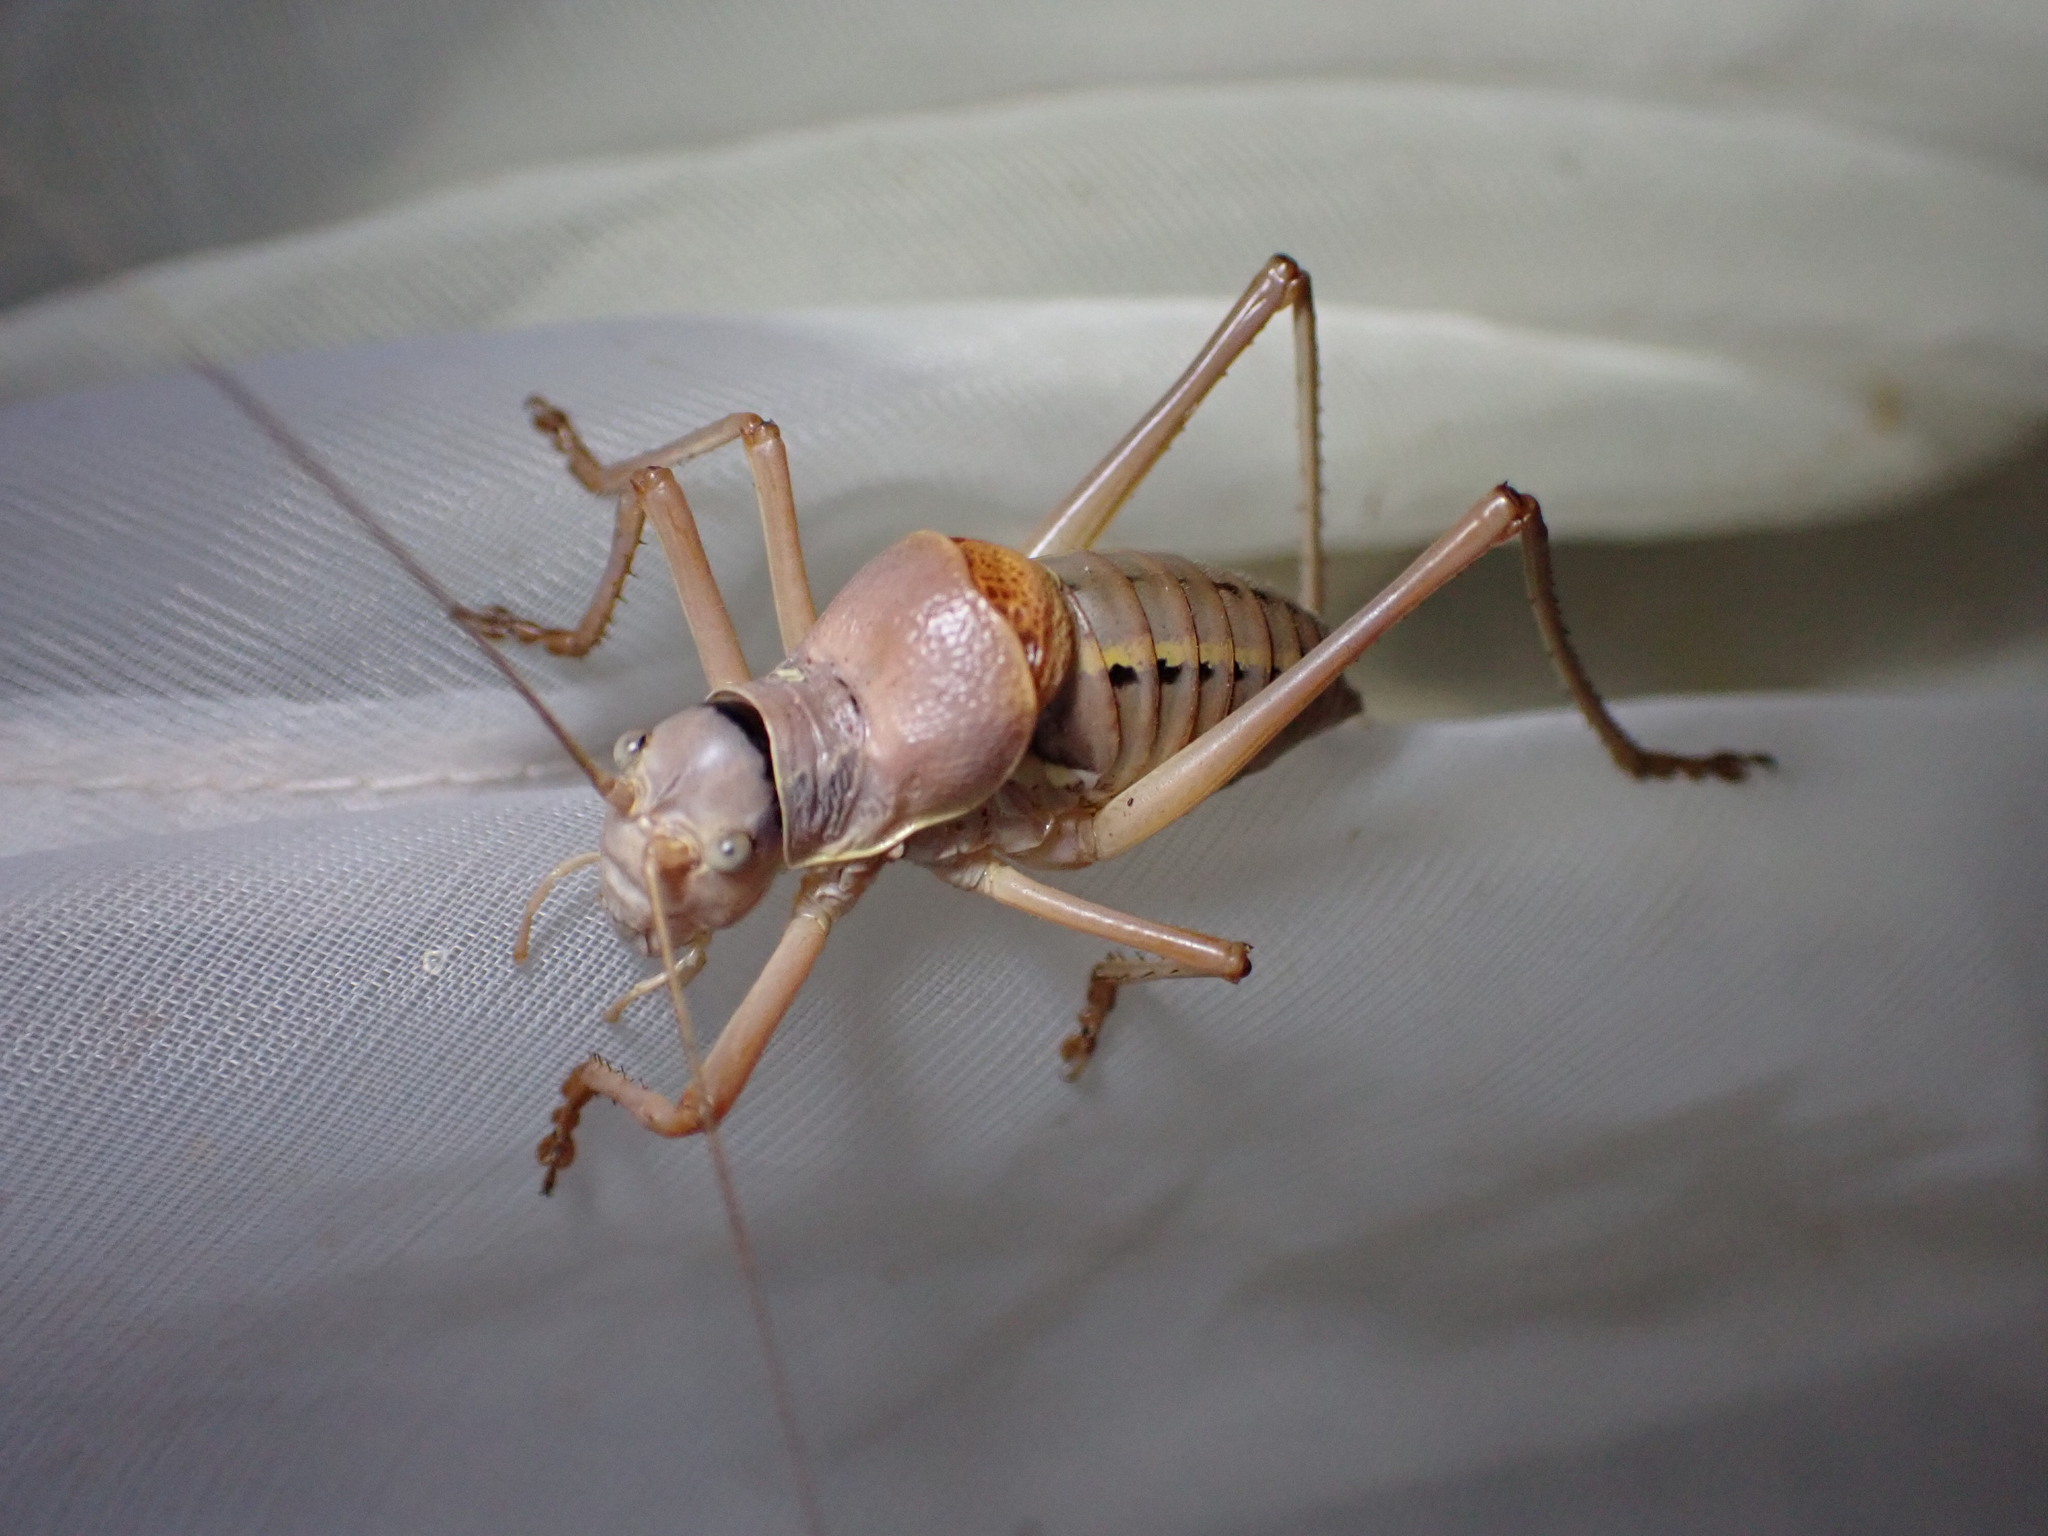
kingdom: Animalia
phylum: Arthropoda
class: Insecta
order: Orthoptera
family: Tettigoniidae
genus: Ephippiger
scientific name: Ephippiger terrestris
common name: Alpine saddle-backed bush-cricket
